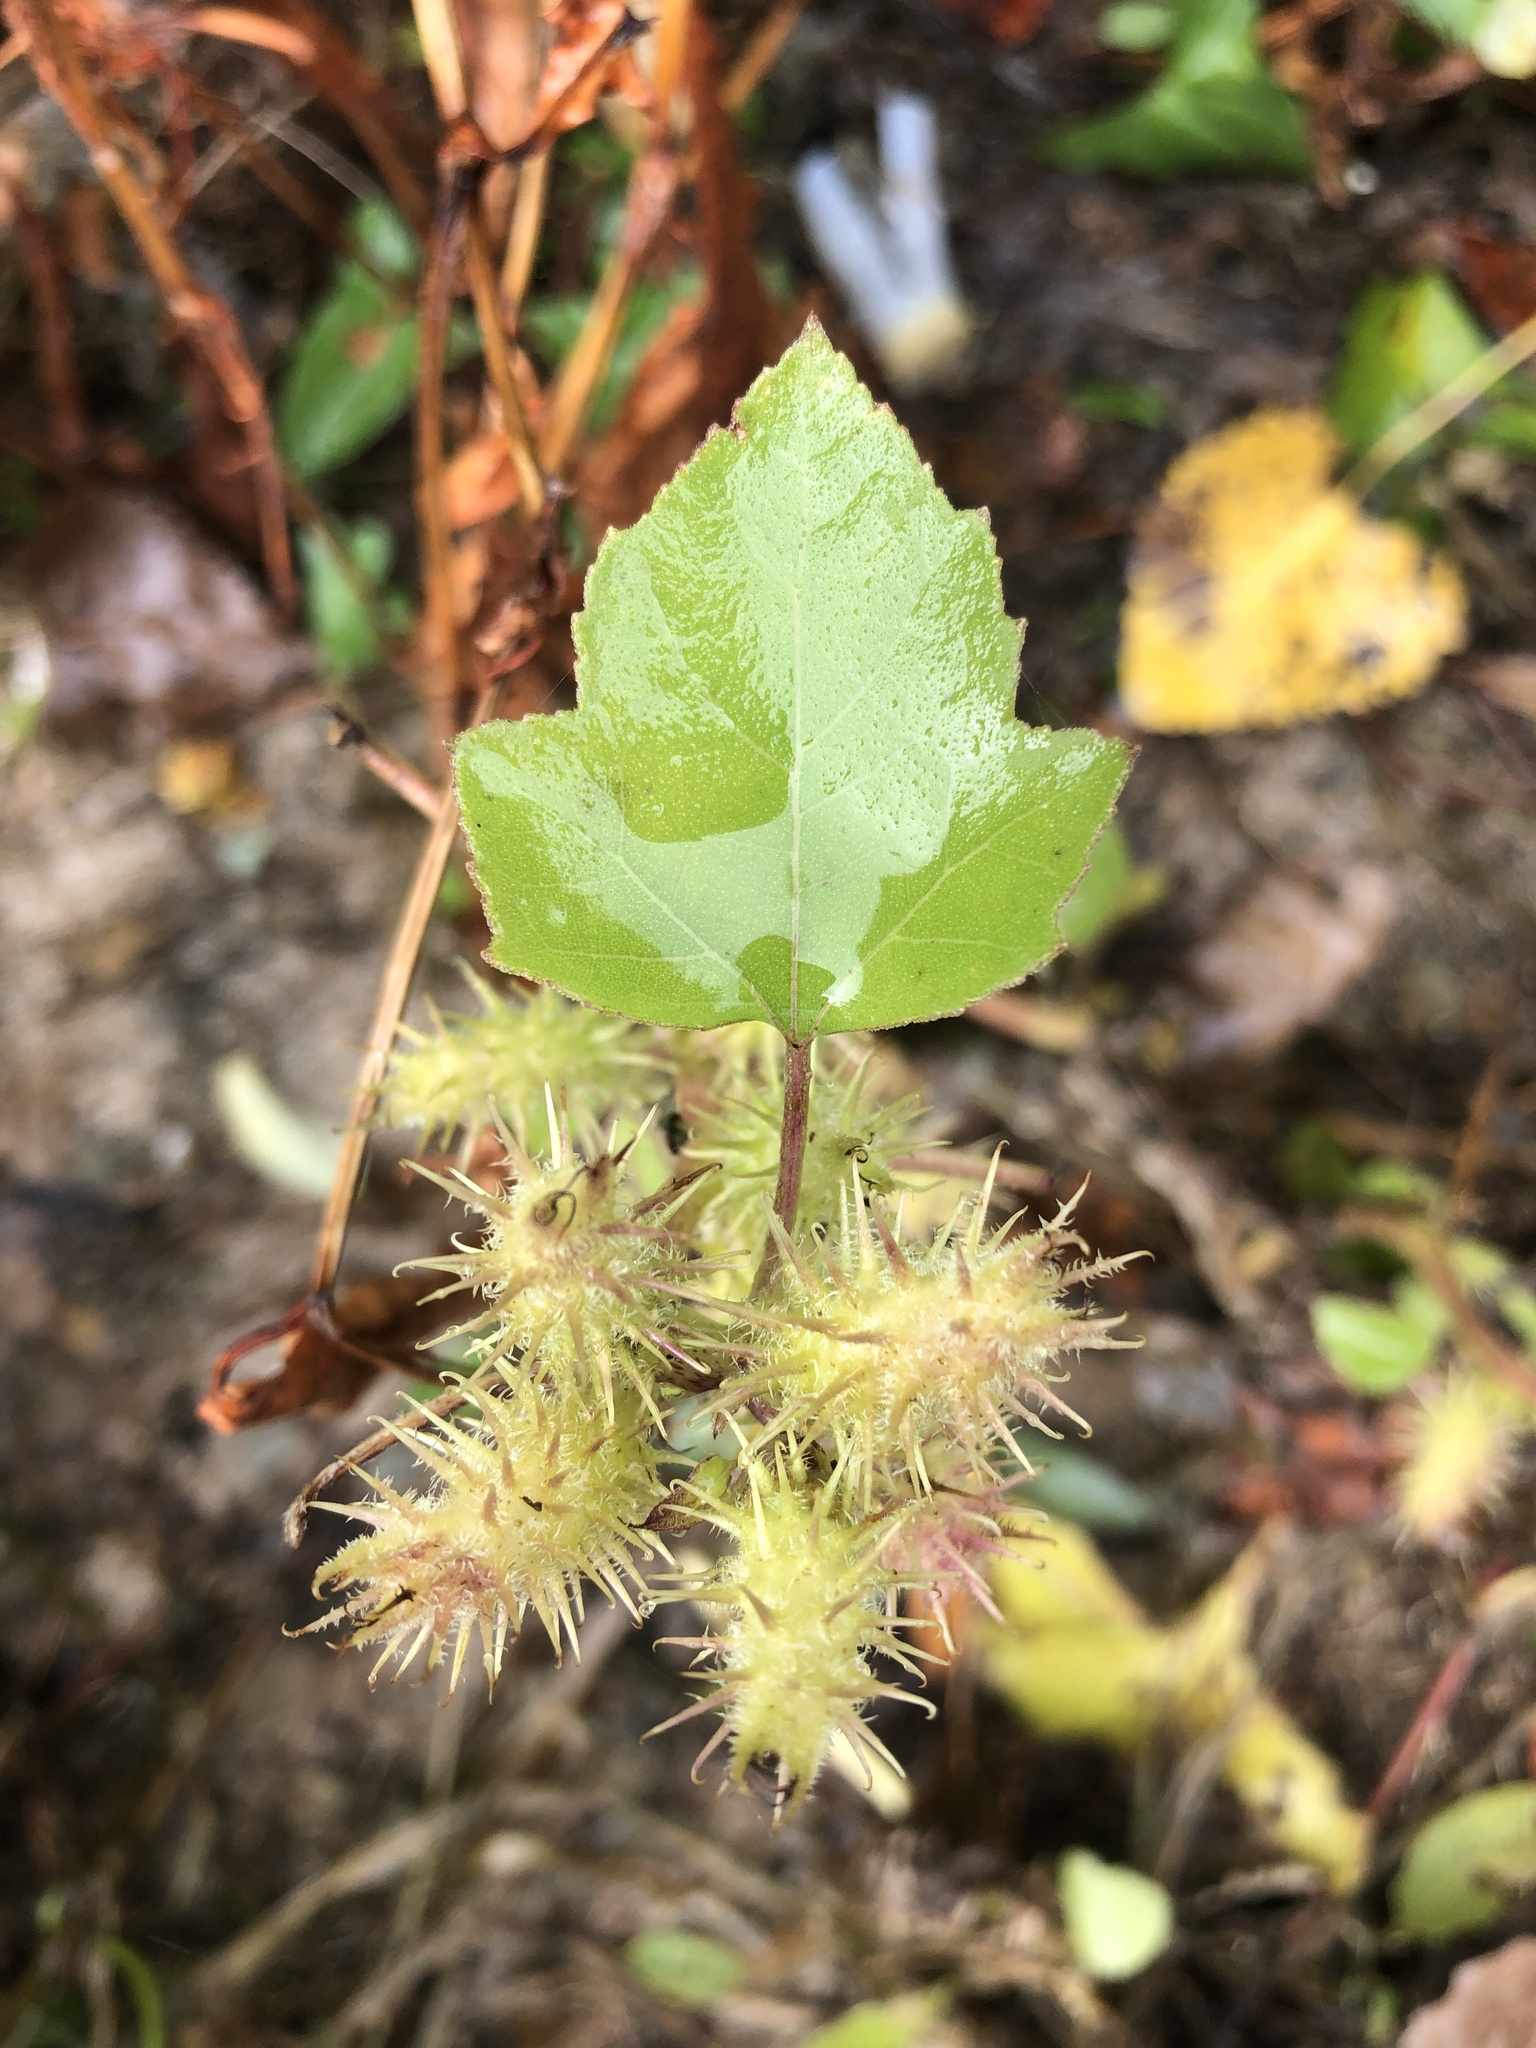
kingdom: Plantae
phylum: Tracheophyta
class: Magnoliopsida
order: Asterales
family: Asteraceae
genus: Xanthium
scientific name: Xanthium strumarium
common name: Rough cocklebur
